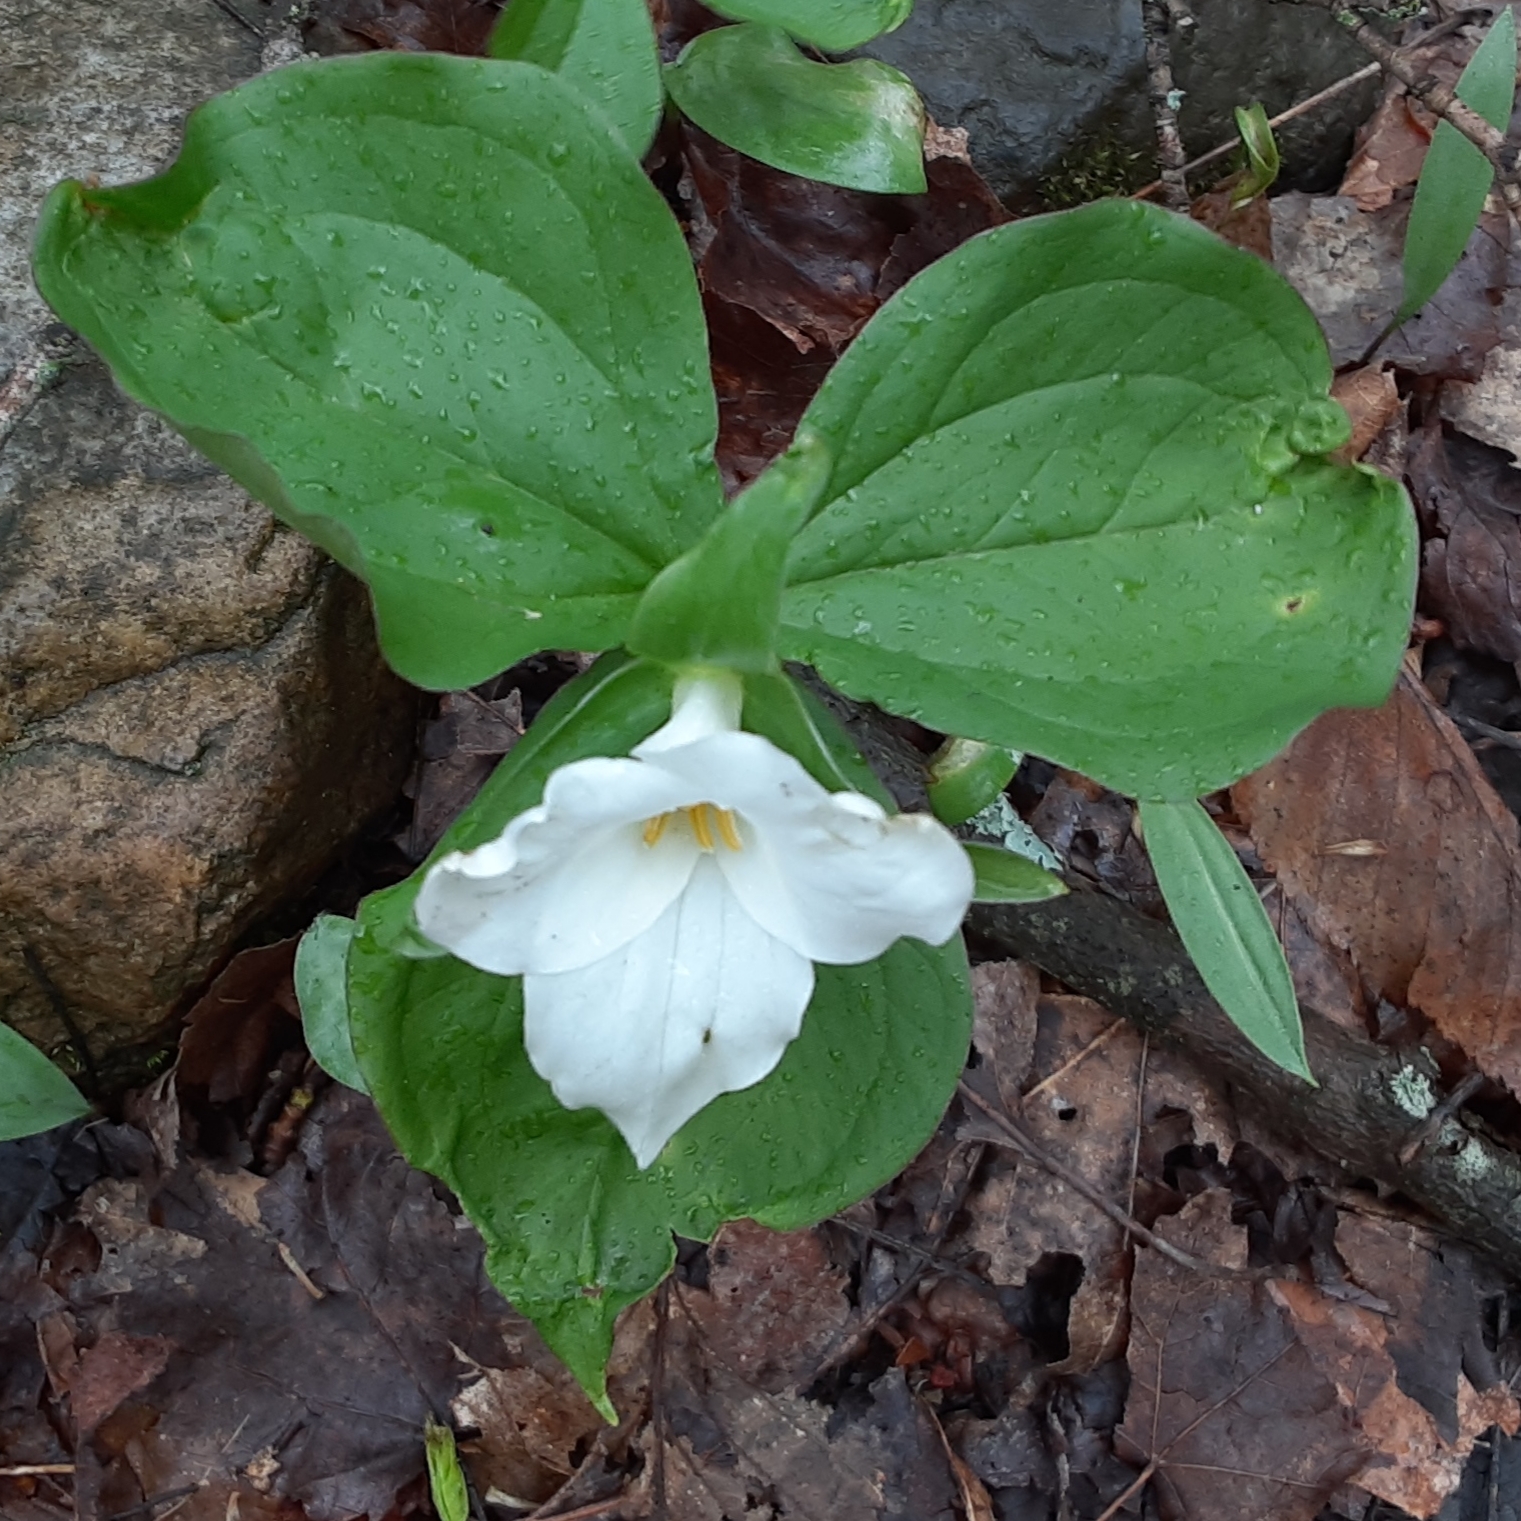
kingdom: Plantae
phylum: Tracheophyta
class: Liliopsida
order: Liliales
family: Melanthiaceae
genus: Trillium
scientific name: Trillium grandiflorum
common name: Great white trillium
